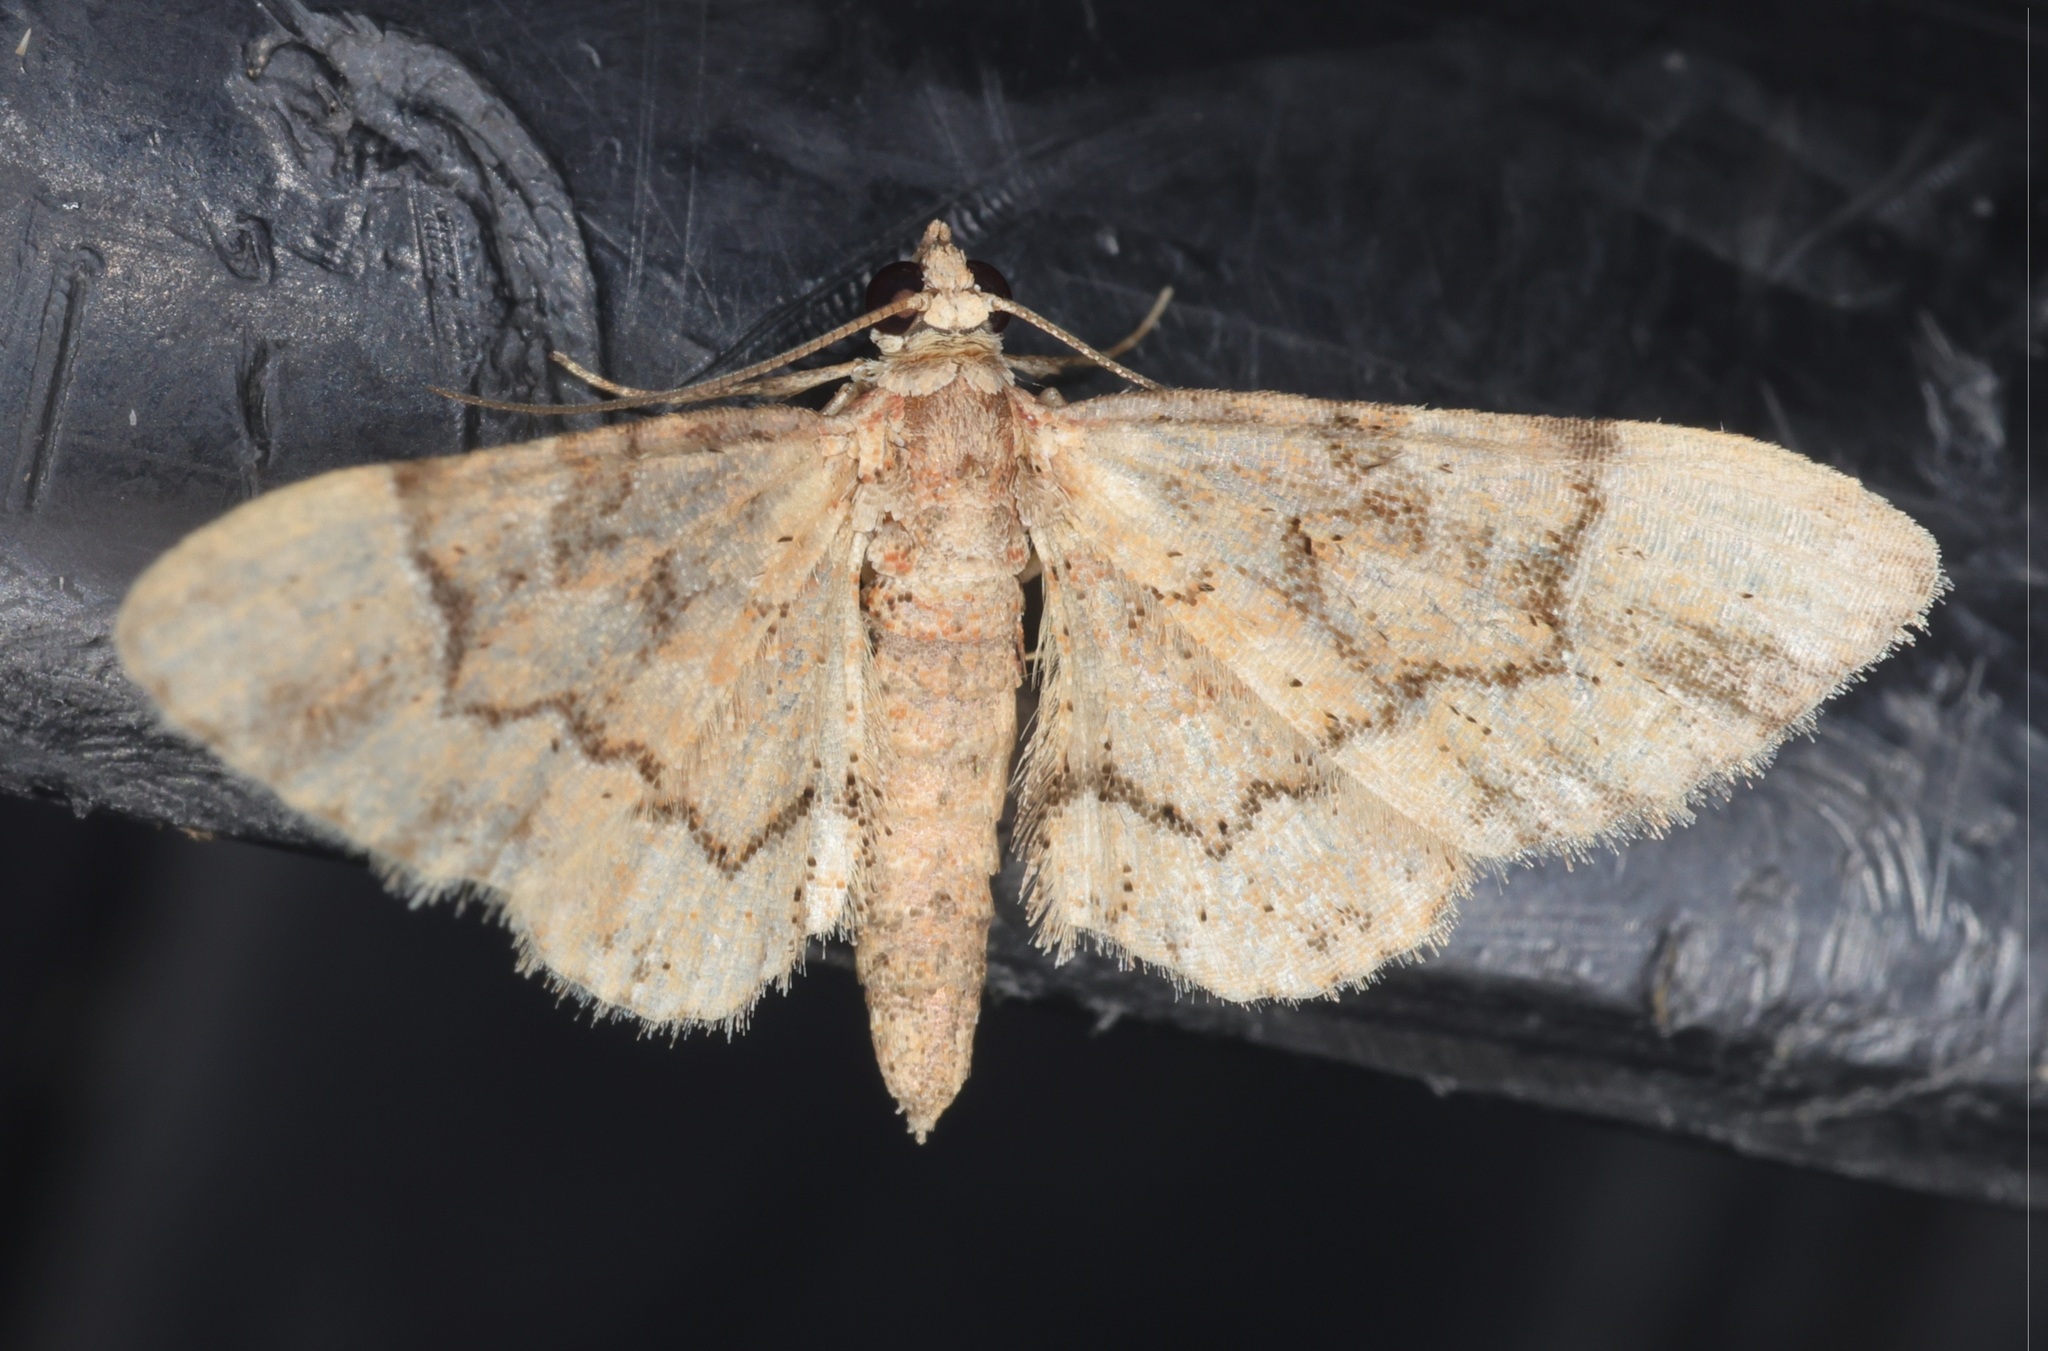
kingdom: Animalia
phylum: Arthropoda
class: Insecta
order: Lepidoptera
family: Geometridae
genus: Gymnoscelis
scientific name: Gymnoscelis tristrigosa
